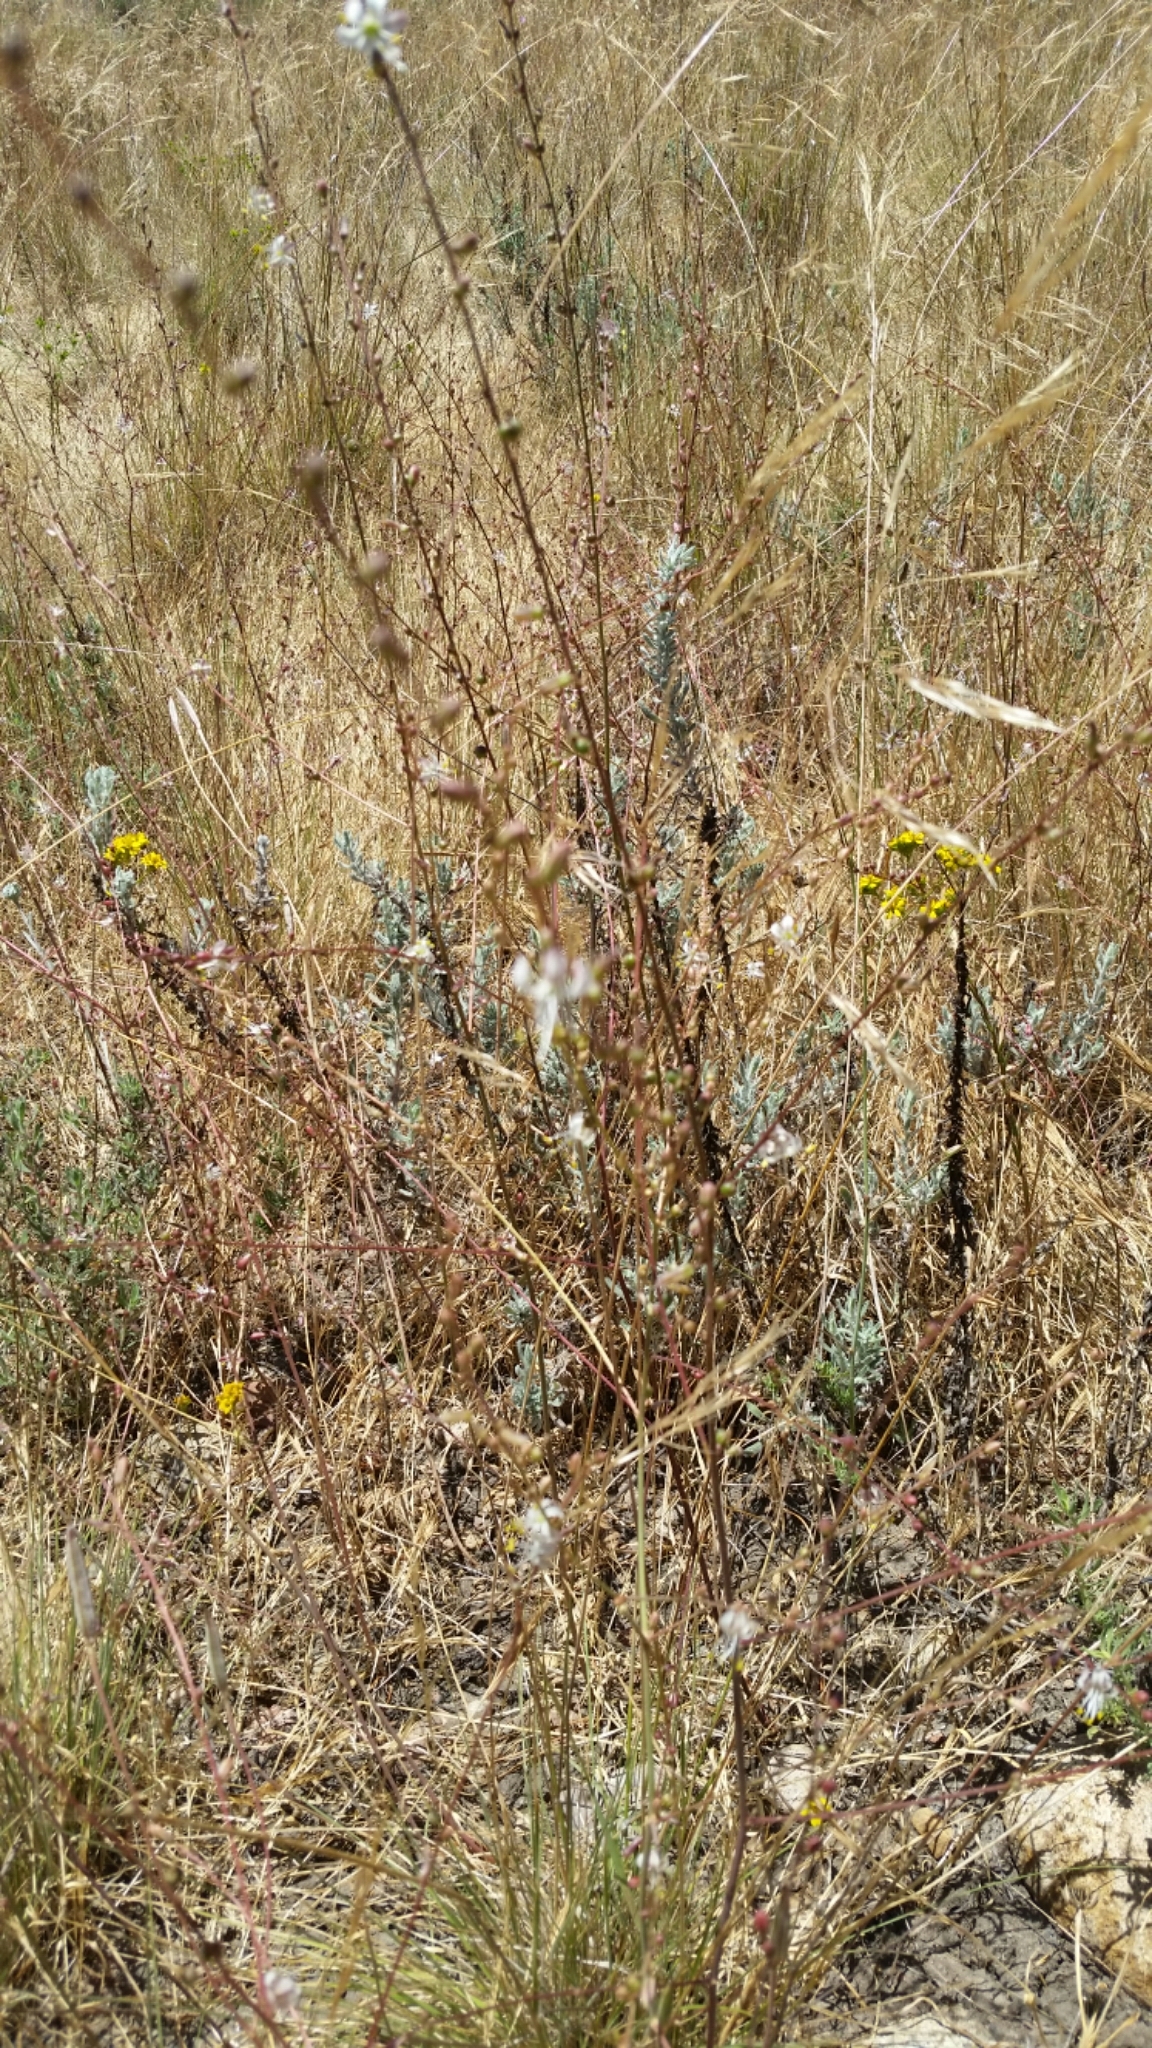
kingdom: Plantae
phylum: Tracheophyta
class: Liliopsida
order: Asparagales
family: Asparagaceae
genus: Hooveria
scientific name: Hooveria parviflora
